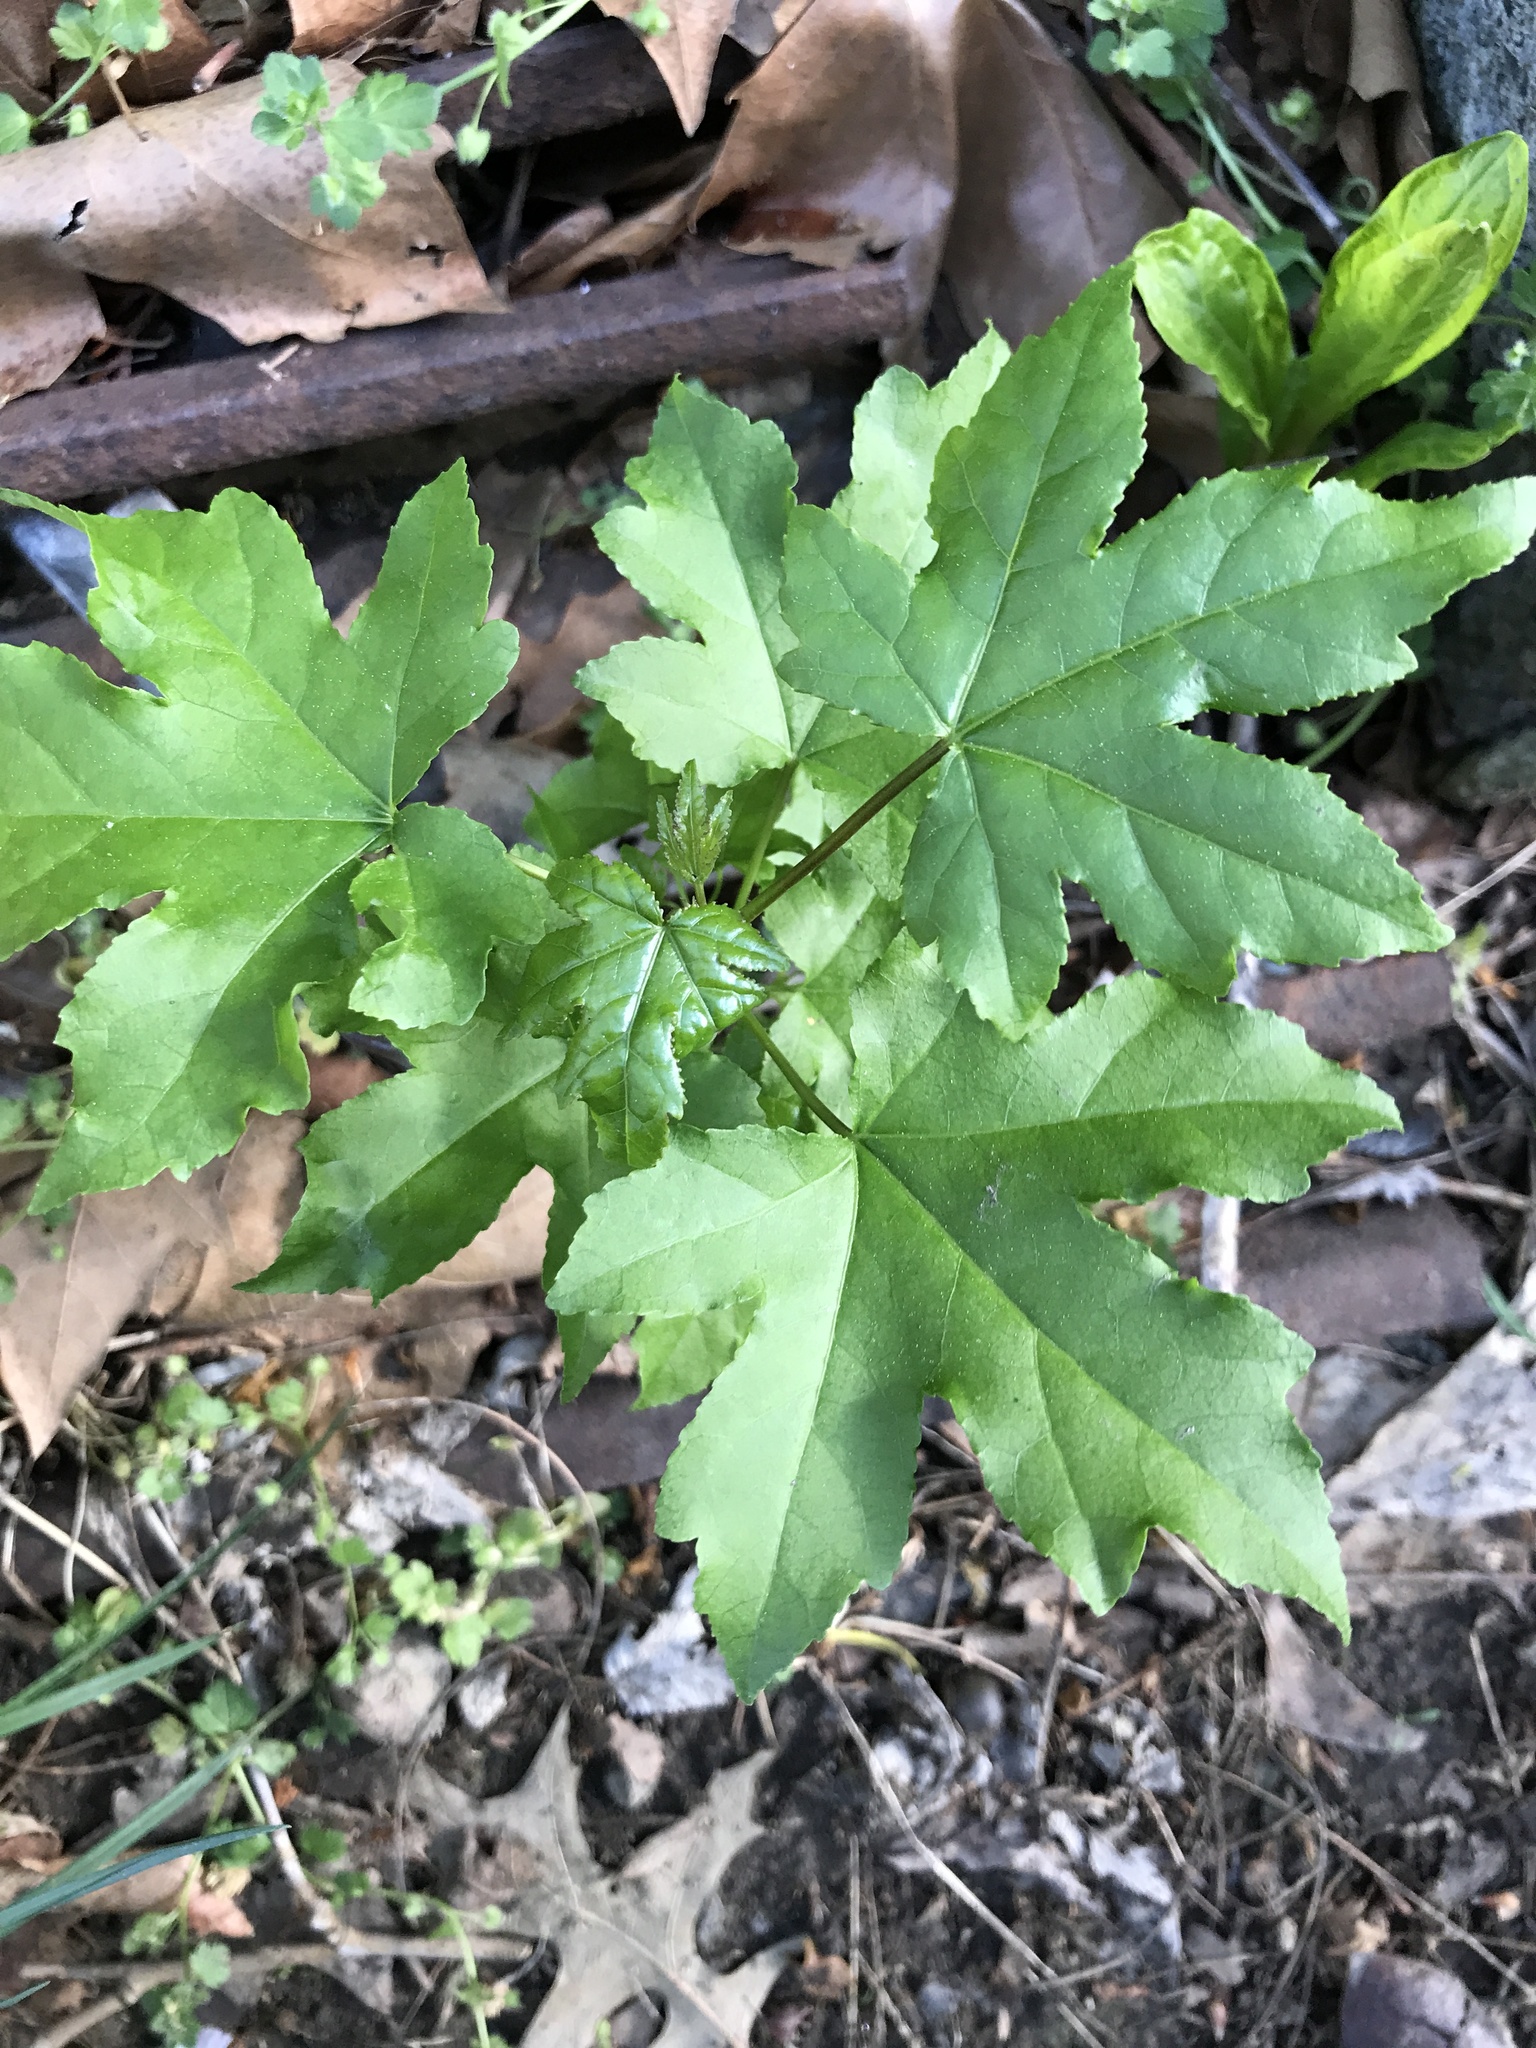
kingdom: Plantae
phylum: Tracheophyta
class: Magnoliopsida
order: Saxifragales
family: Altingiaceae
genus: Liquidambar
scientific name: Liquidambar styraciflua
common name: Sweet gum
